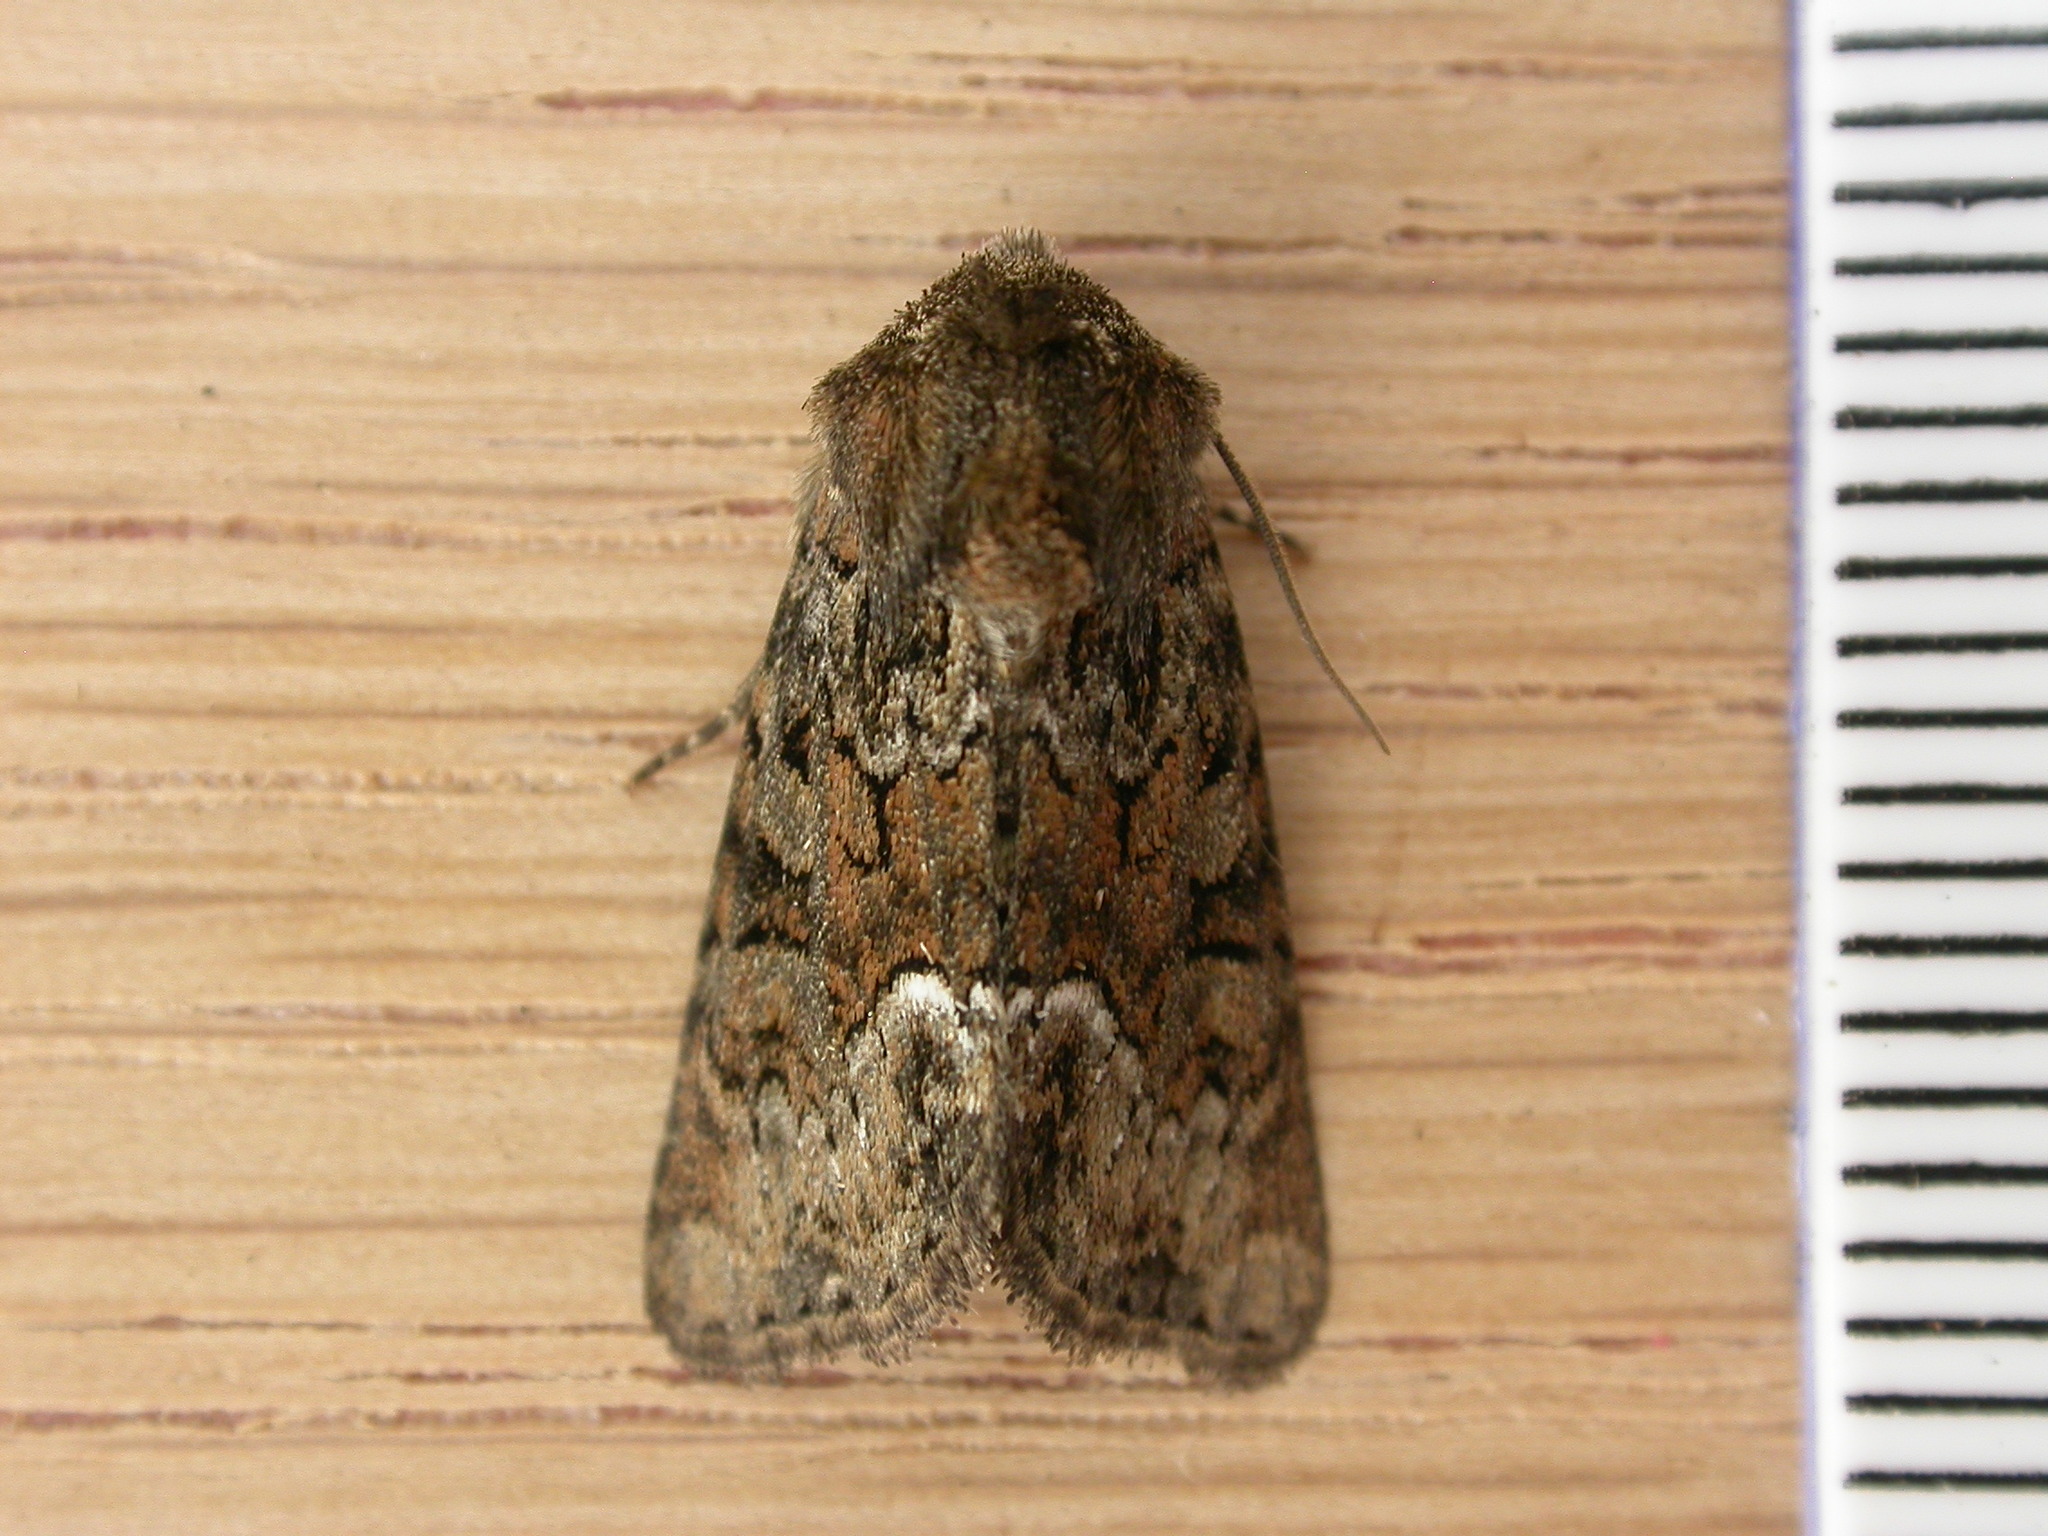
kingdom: Animalia
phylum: Arthropoda
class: Insecta
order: Lepidoptera
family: Noctuidae
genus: Oligia
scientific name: Oligia versicolor
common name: Rufous minor
